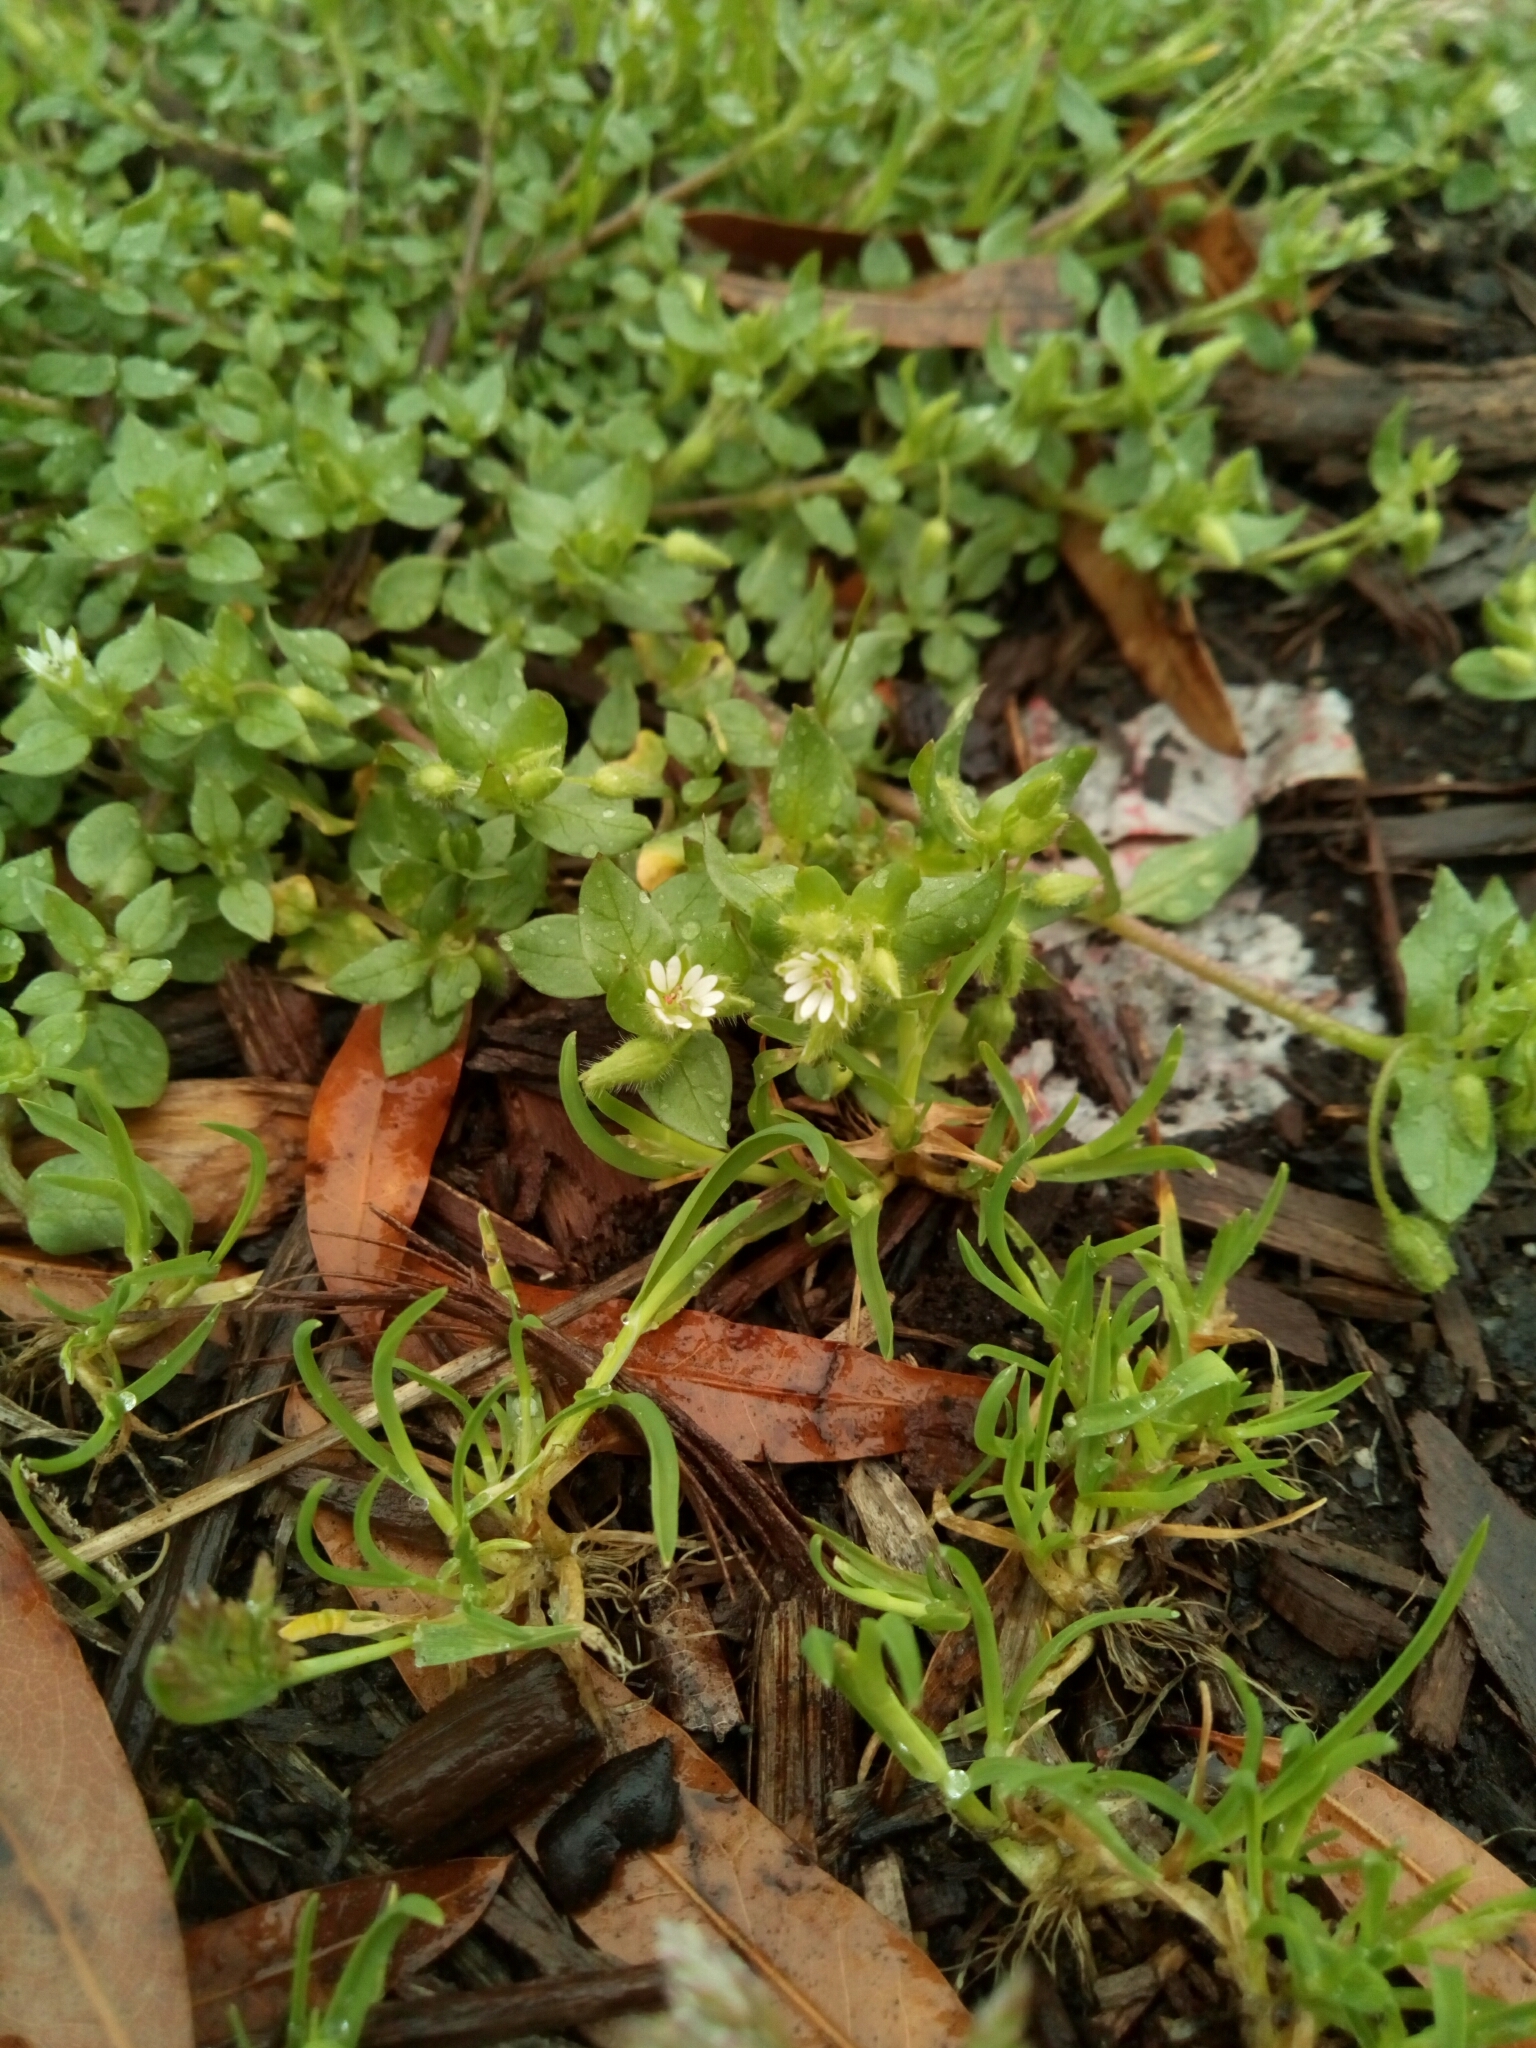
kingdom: Plantae
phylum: Tracheophyta
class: Magnoliopsida
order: Caryophyllales
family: Caryophyllaceae
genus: Stellaria
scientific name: Stellaria media
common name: Common chickweed
